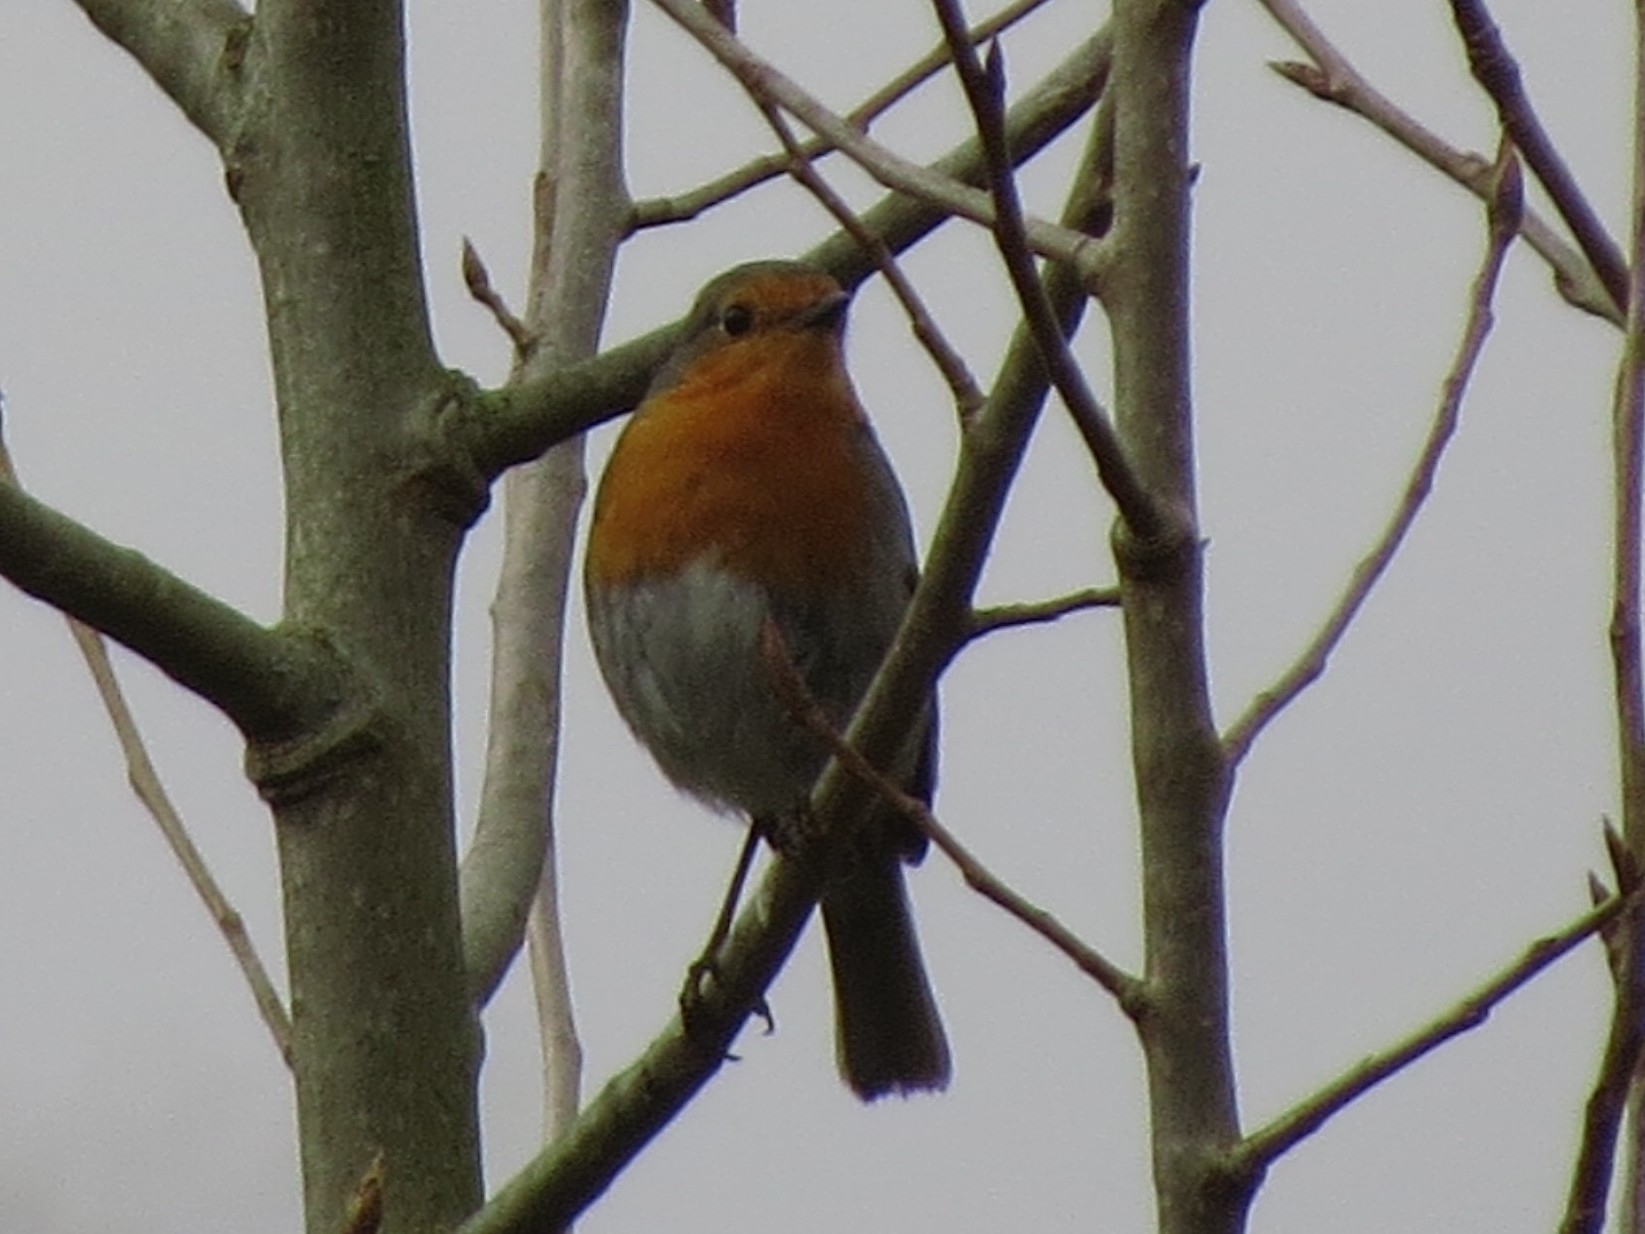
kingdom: Animalia
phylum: Chordata
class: Aves
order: Passeriformes
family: Muscicapidae
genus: Erithacus
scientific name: Erithacus rubecula
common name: European robin
